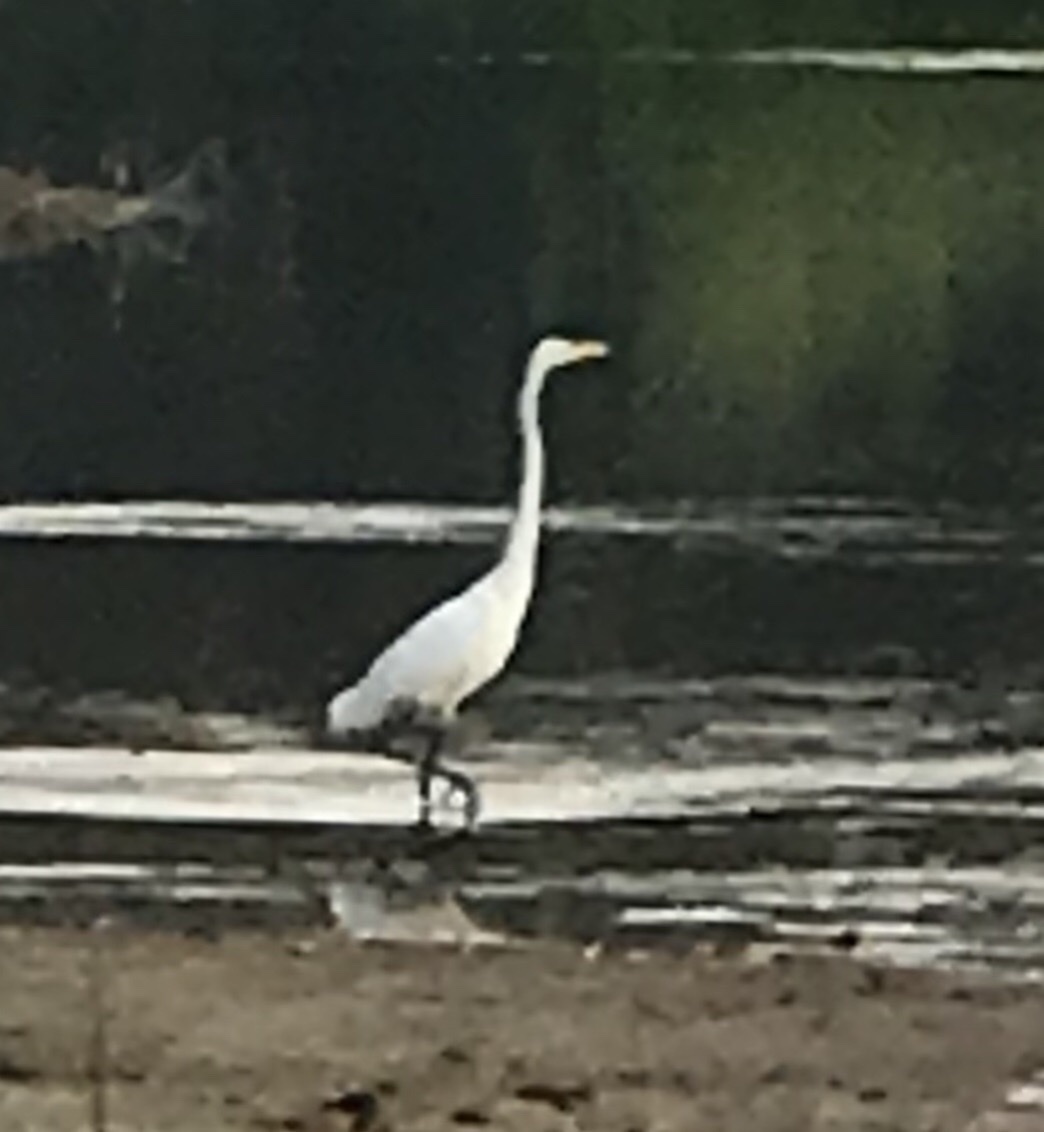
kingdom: Animalia
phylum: Chordata
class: Aves
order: Pelecaniformes
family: Ardeidae
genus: Ardea
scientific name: Ardea alba
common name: Great egret
